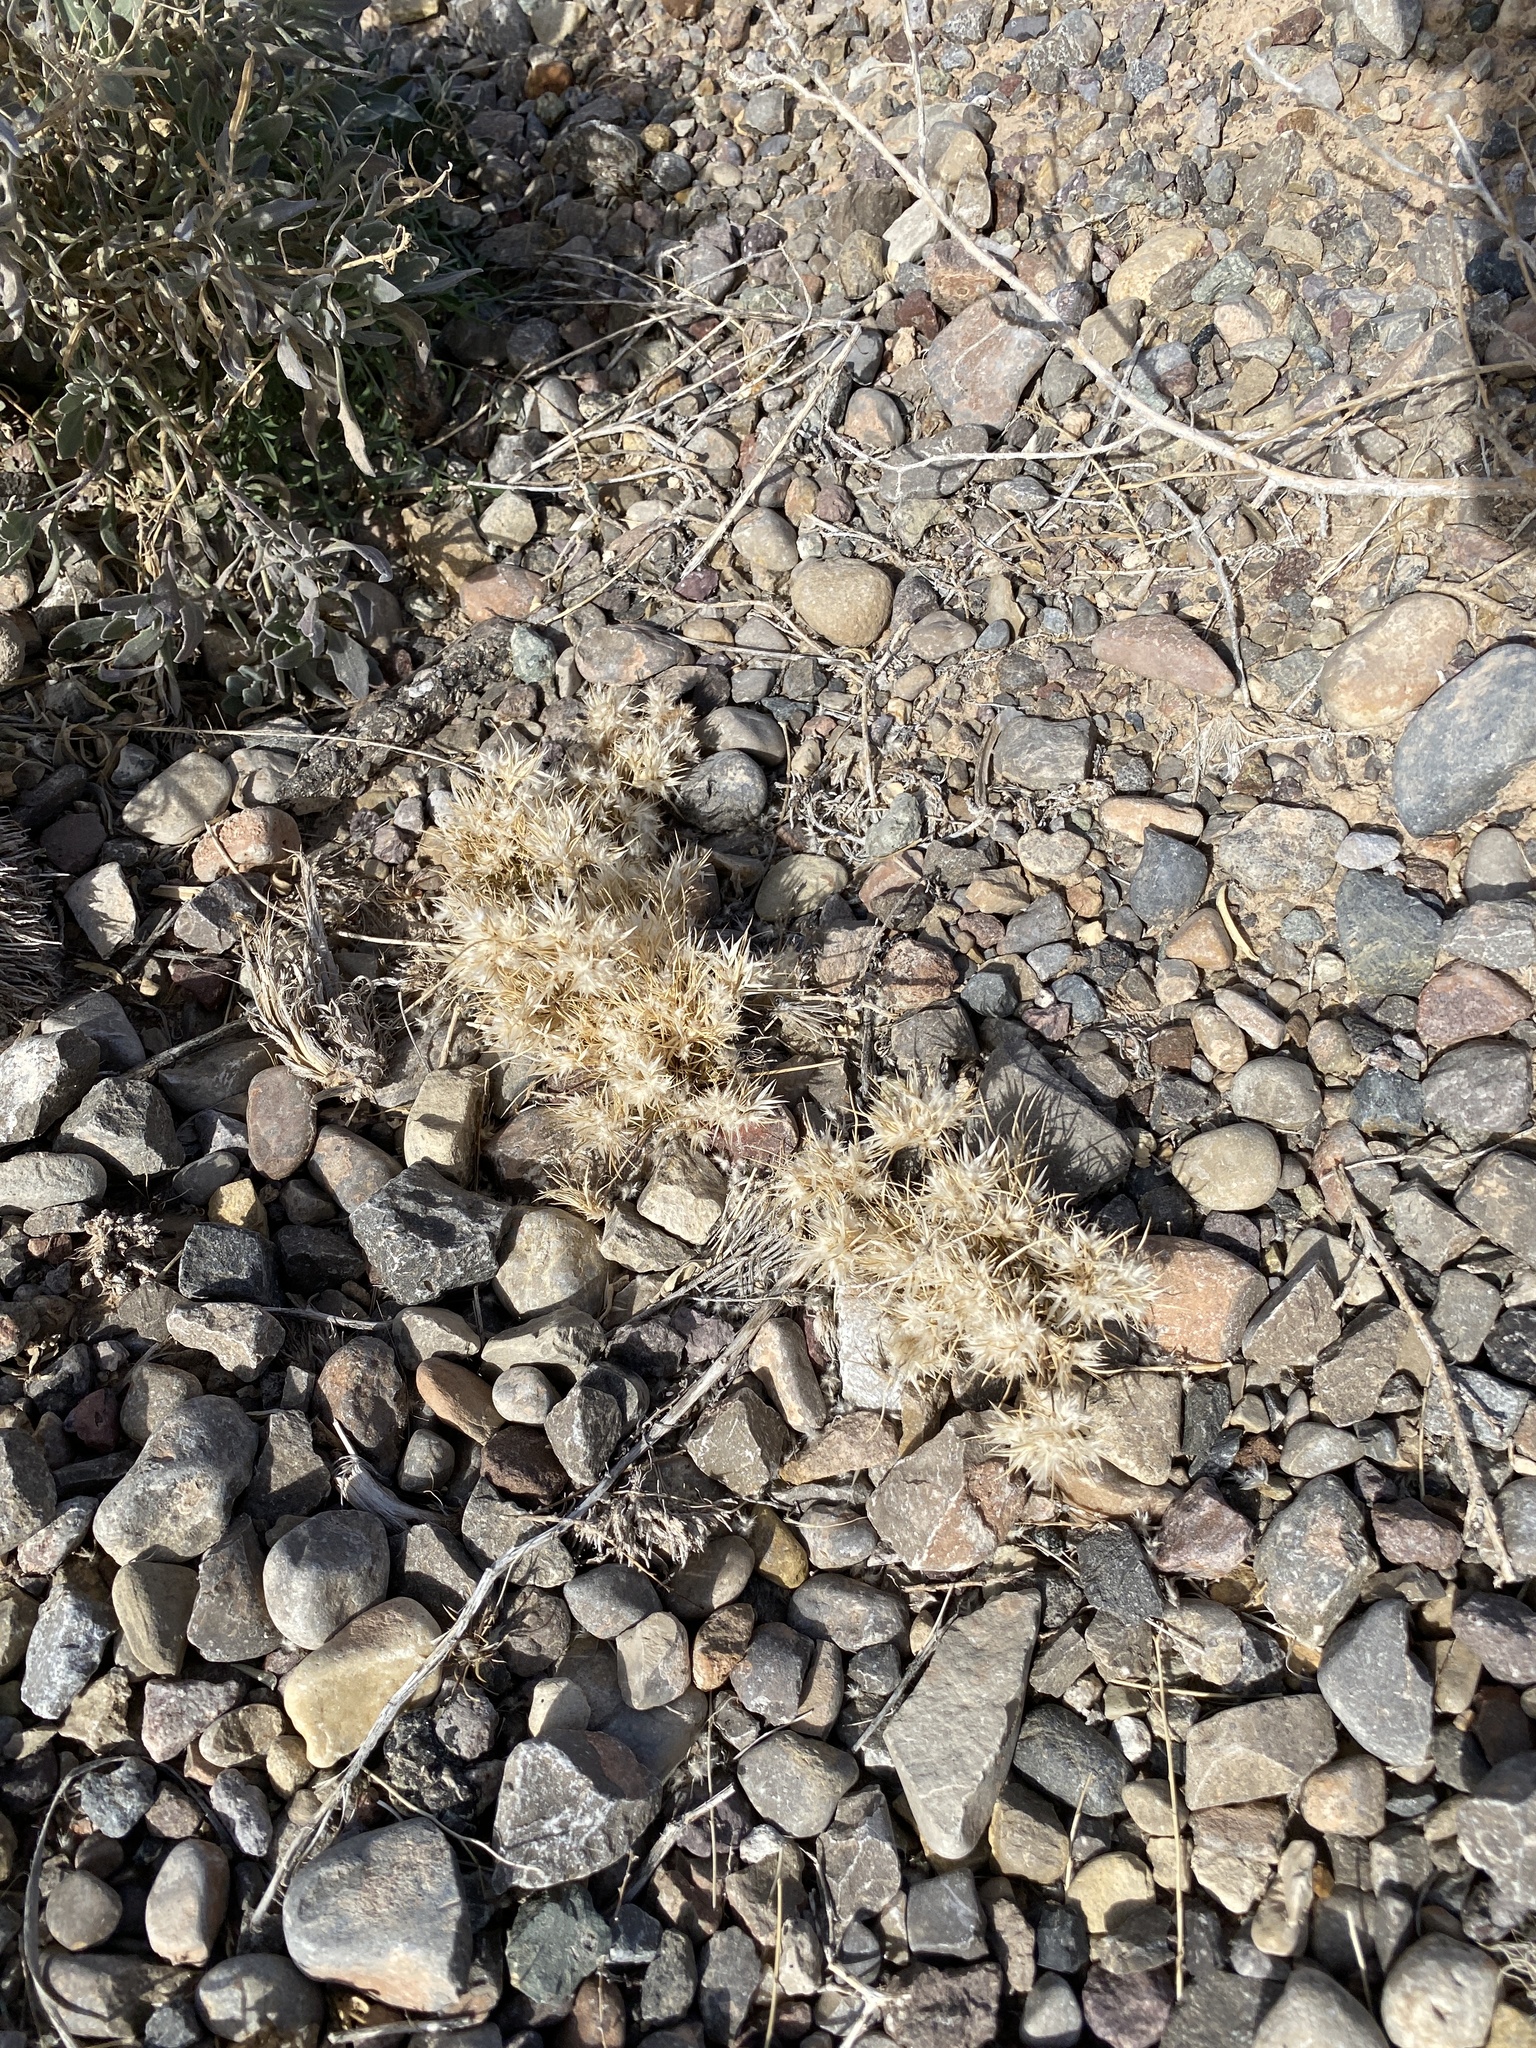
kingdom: Plantae
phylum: Tracheophyta
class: Liliopsida
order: Poales
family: Poaceae
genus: Dasyochloa
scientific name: Dasyochloa pulchella
